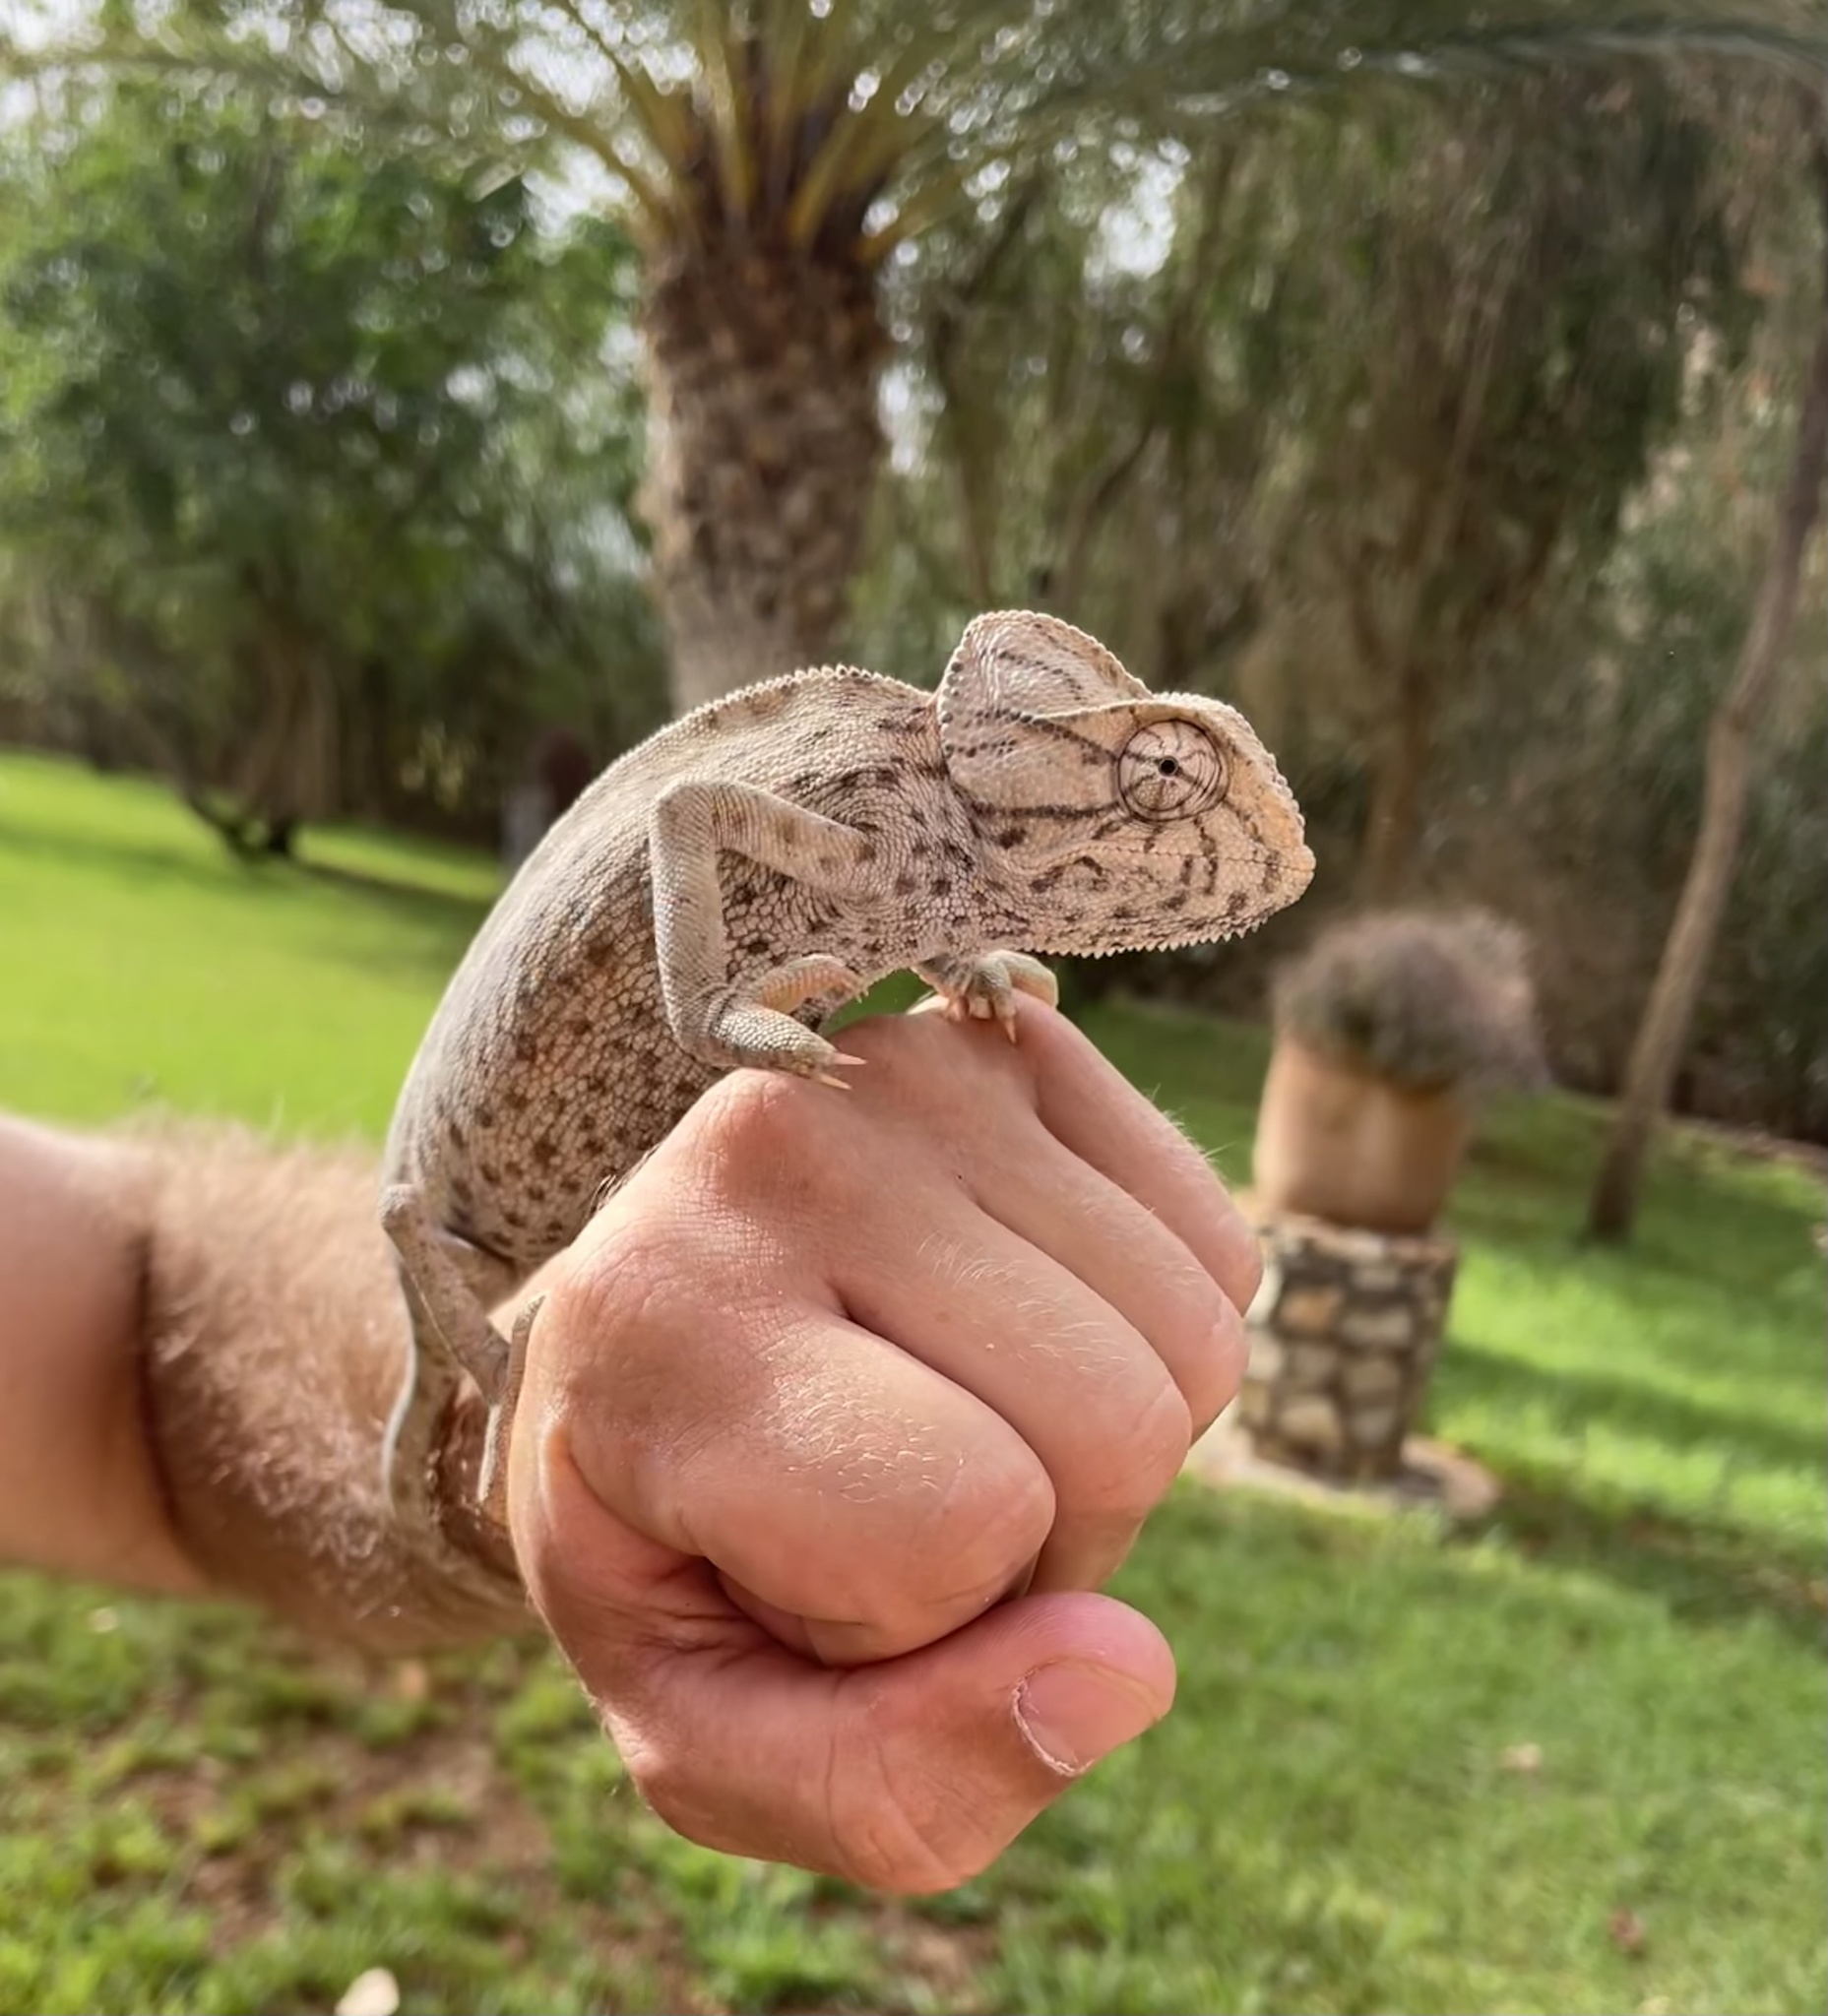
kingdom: Animalia
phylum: Chordata
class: Squamata
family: Chamaeleonidae
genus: Chamaeleo
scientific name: Chamaeleo chamaeleon
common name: Mediterranean chameleon
